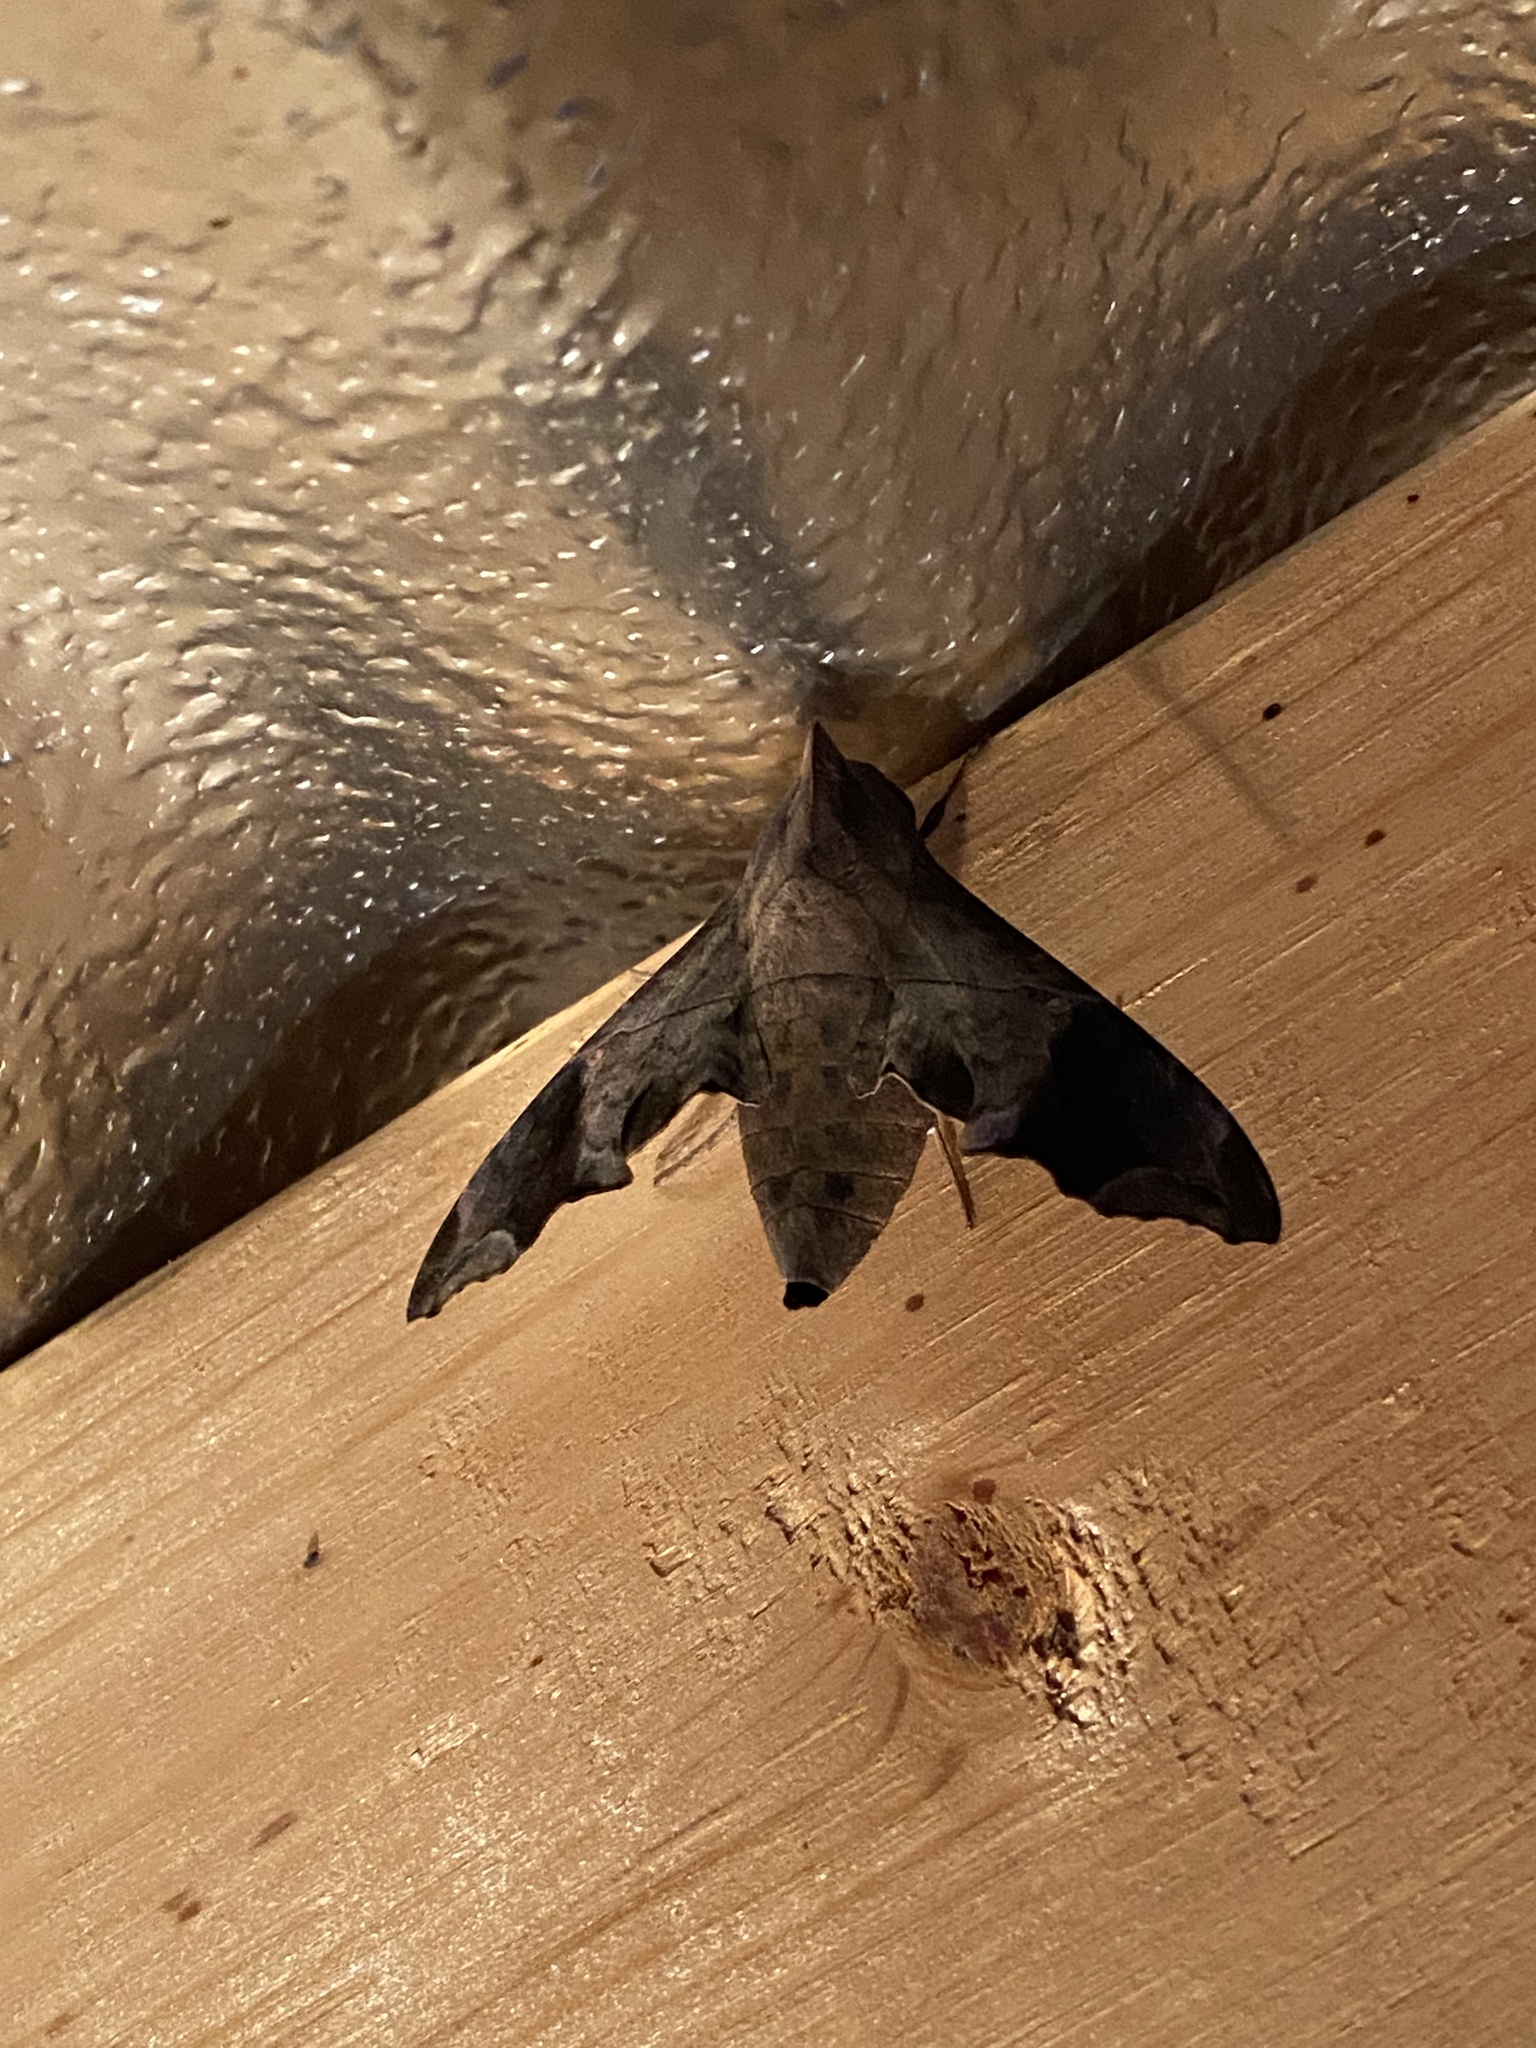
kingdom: Animalia
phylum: Arthropoda
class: Insecta
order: Lepidoptera
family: Sphingidae
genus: Enyo
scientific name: Enyo lugubris
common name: Mournful sphinx
